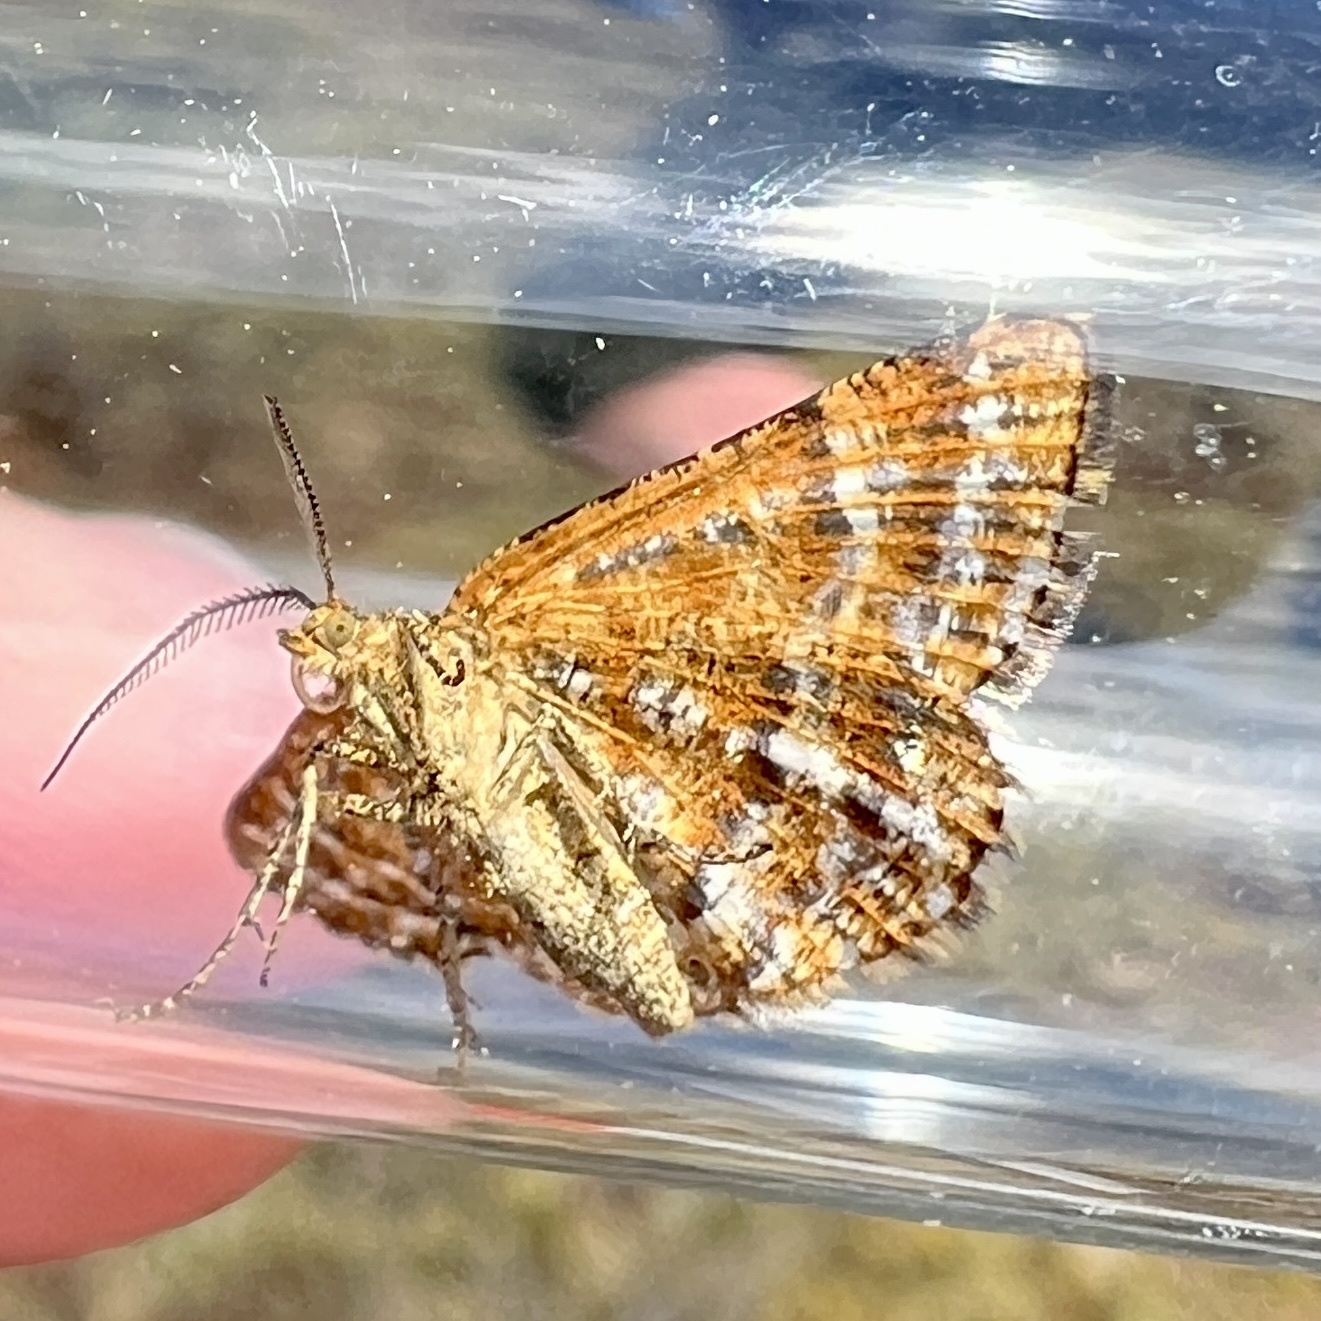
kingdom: Animalia
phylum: Arthropoda
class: Insecta
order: Lepidoptera
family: Geometridae
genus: Macaria
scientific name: Macaria truncataria
